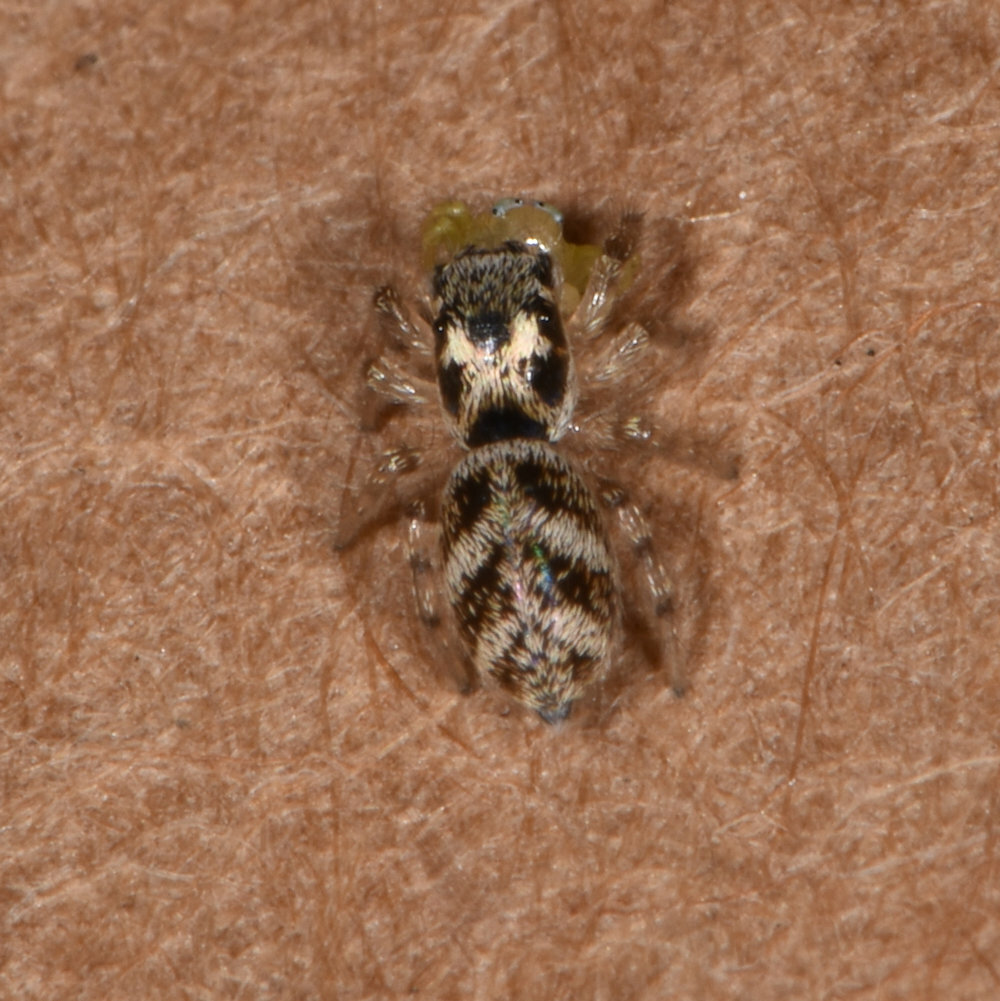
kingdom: Animalia
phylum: Arthropoda
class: Arachnida
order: Araneae
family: Salticidae
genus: Salticus
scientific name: Salticus scenicus
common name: Zebra jumper
